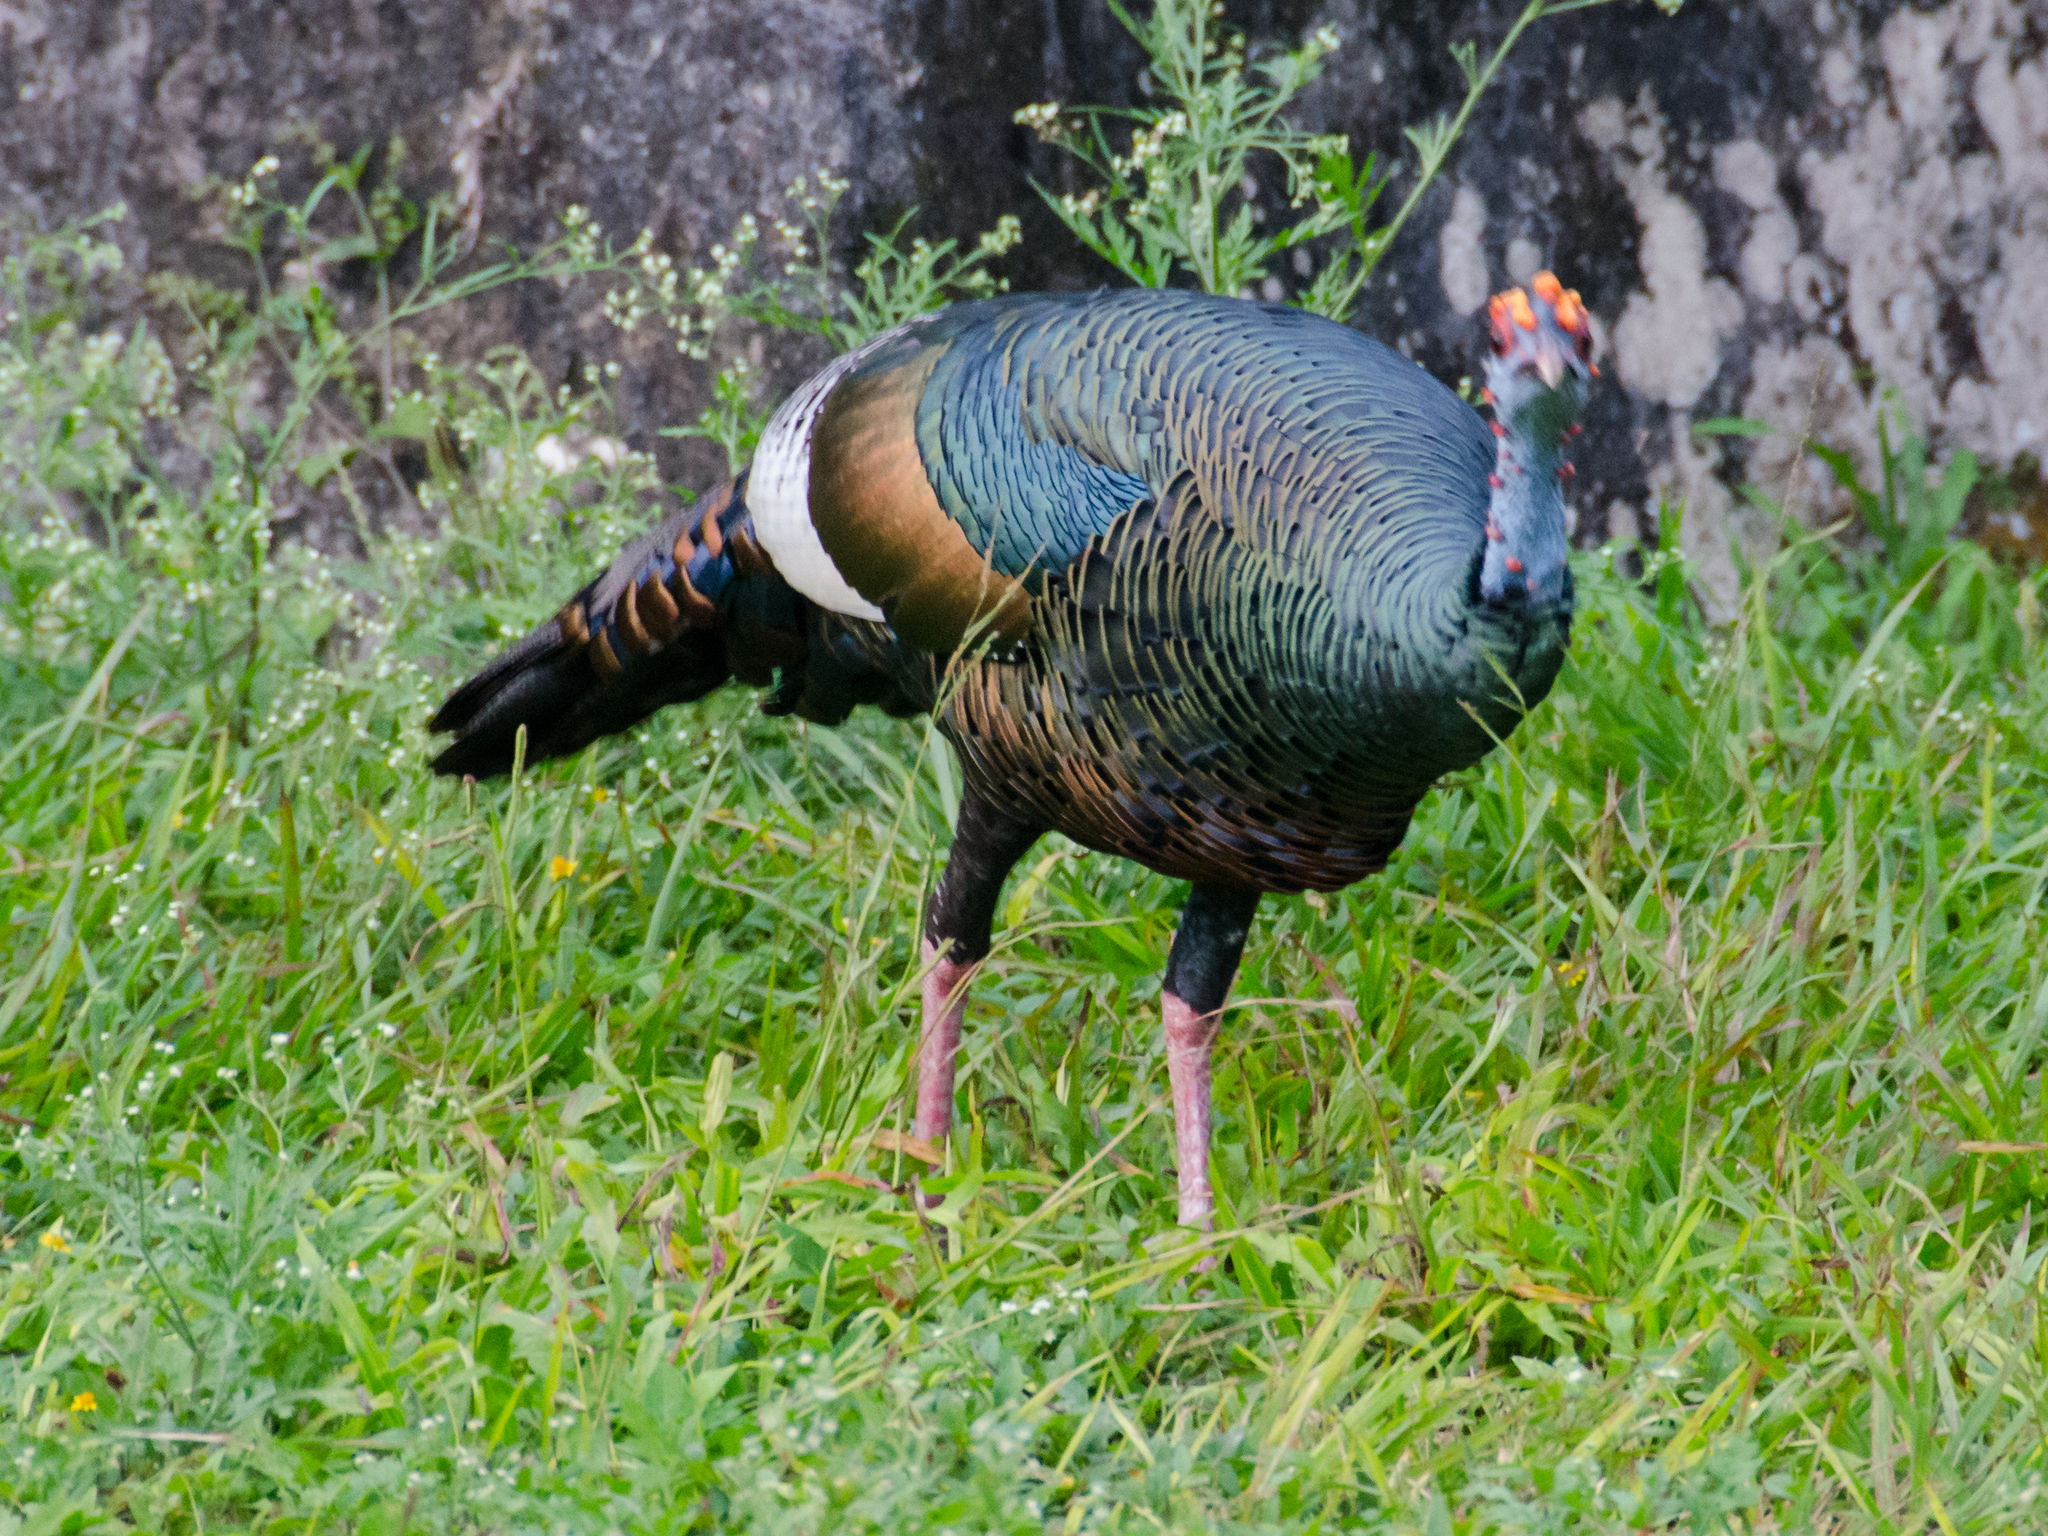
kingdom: Animalia
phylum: Chordata
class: Aves
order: Galliformes
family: Phasianidae
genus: Meleagris
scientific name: Meleagris ocellata
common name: Ocellated turkey
